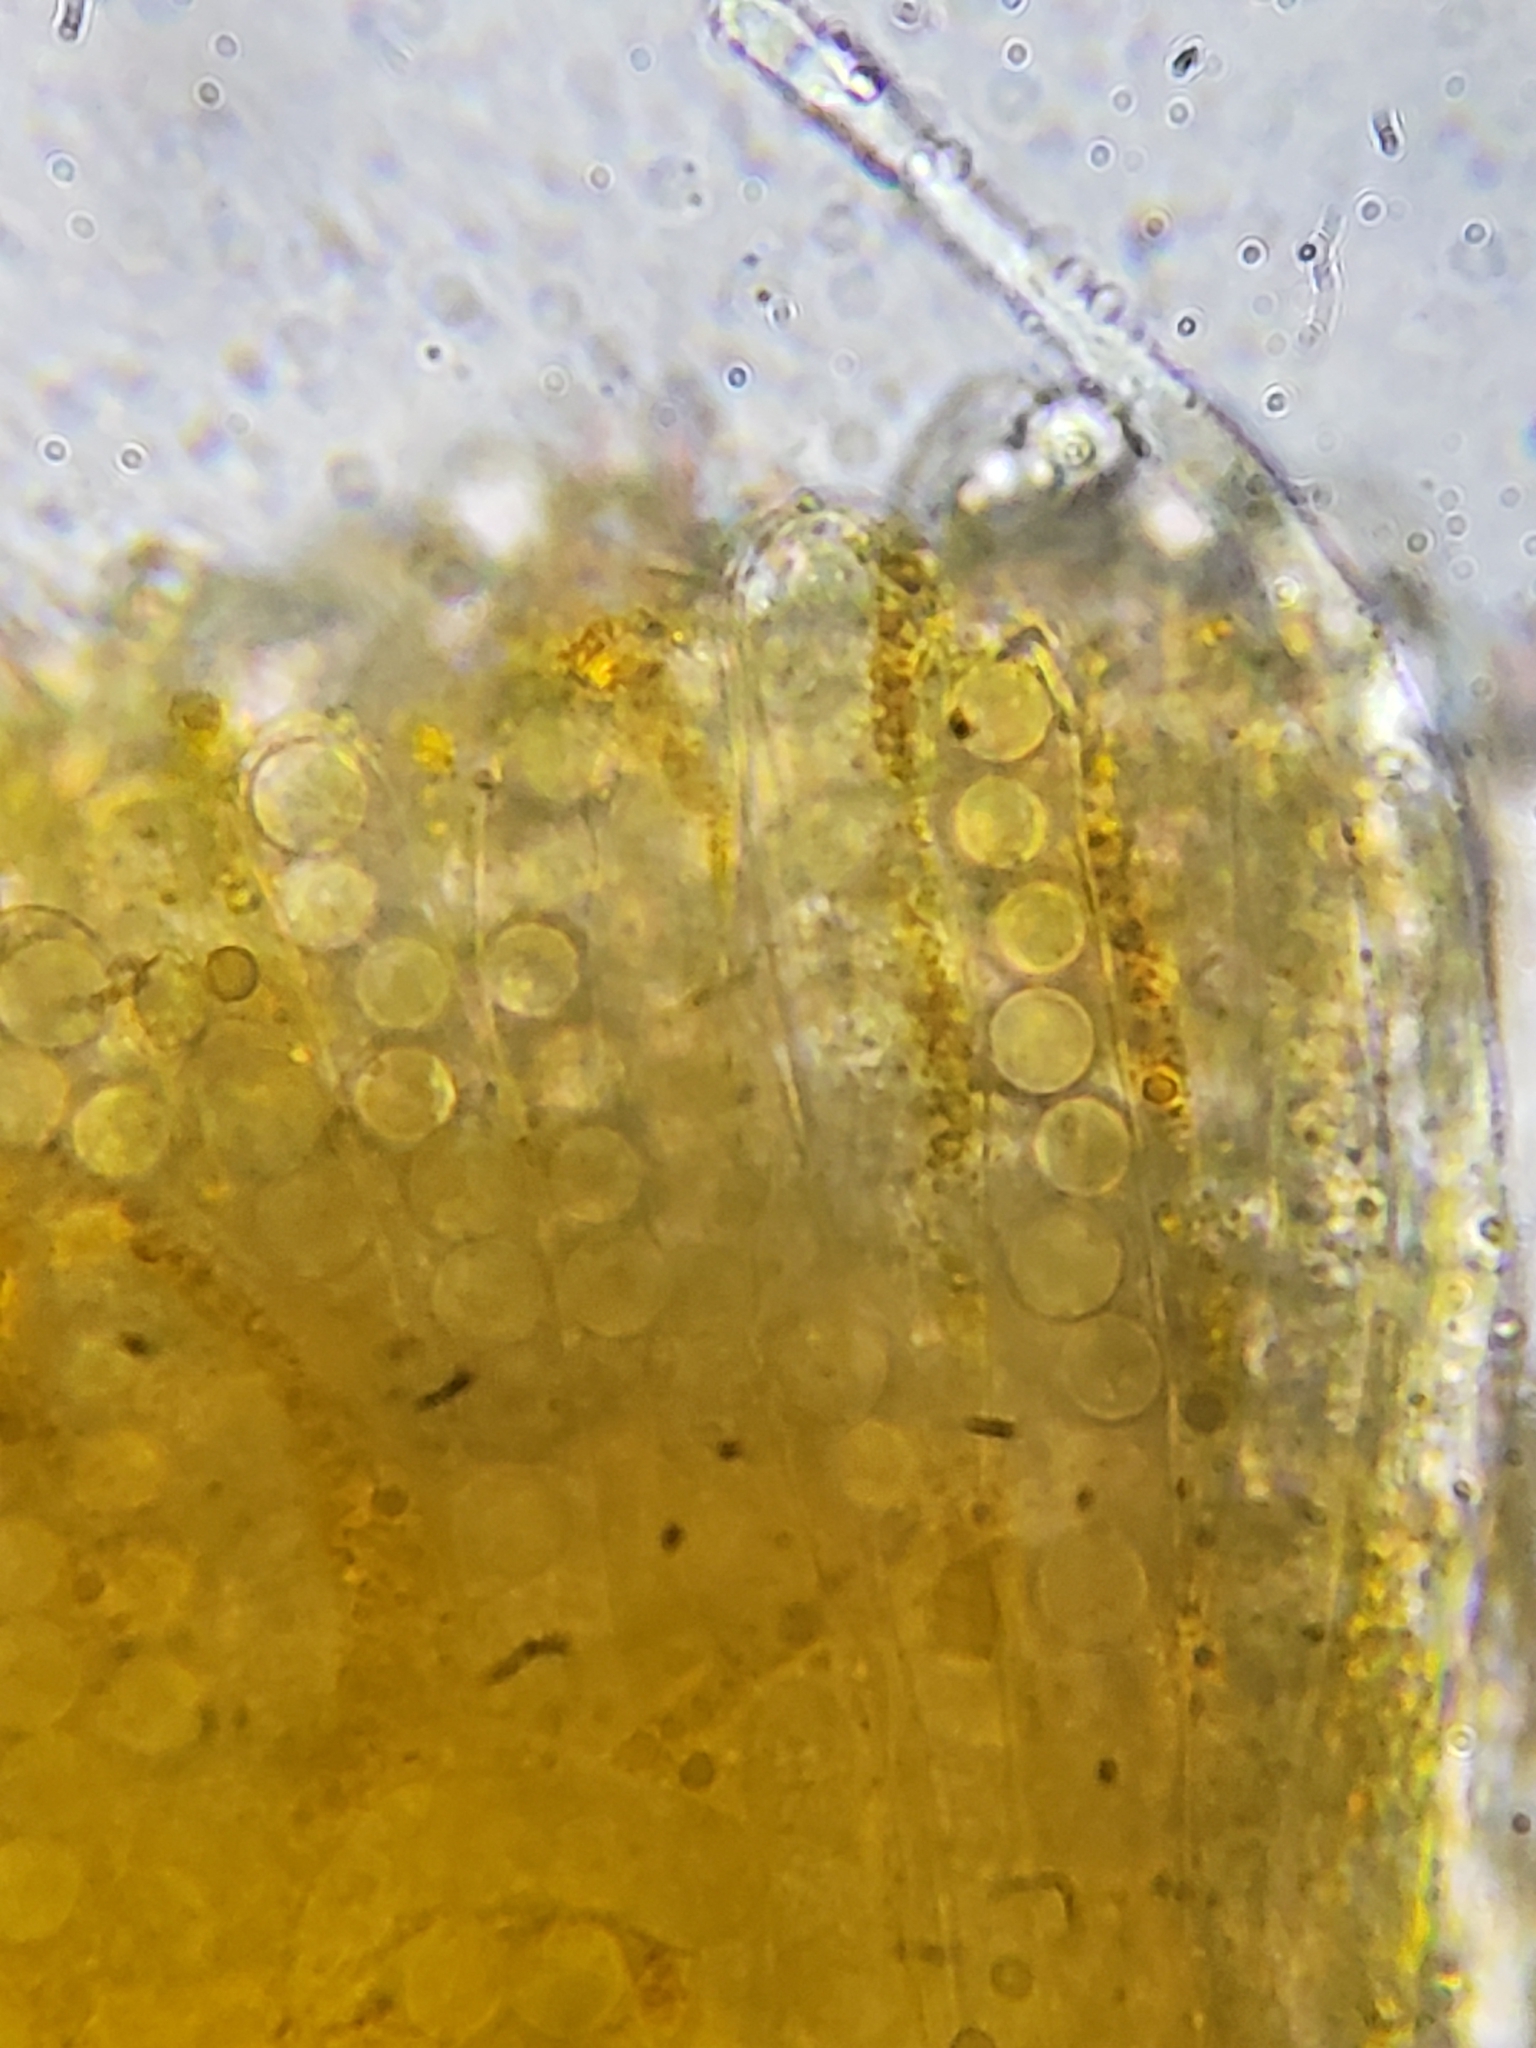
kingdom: Fungi
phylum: Ascomycota
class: Pezizomycetes
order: Pezizales
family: Caloscyphaceae
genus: Caloscypha
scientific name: Caloscypha fulgens
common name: Golden cup
